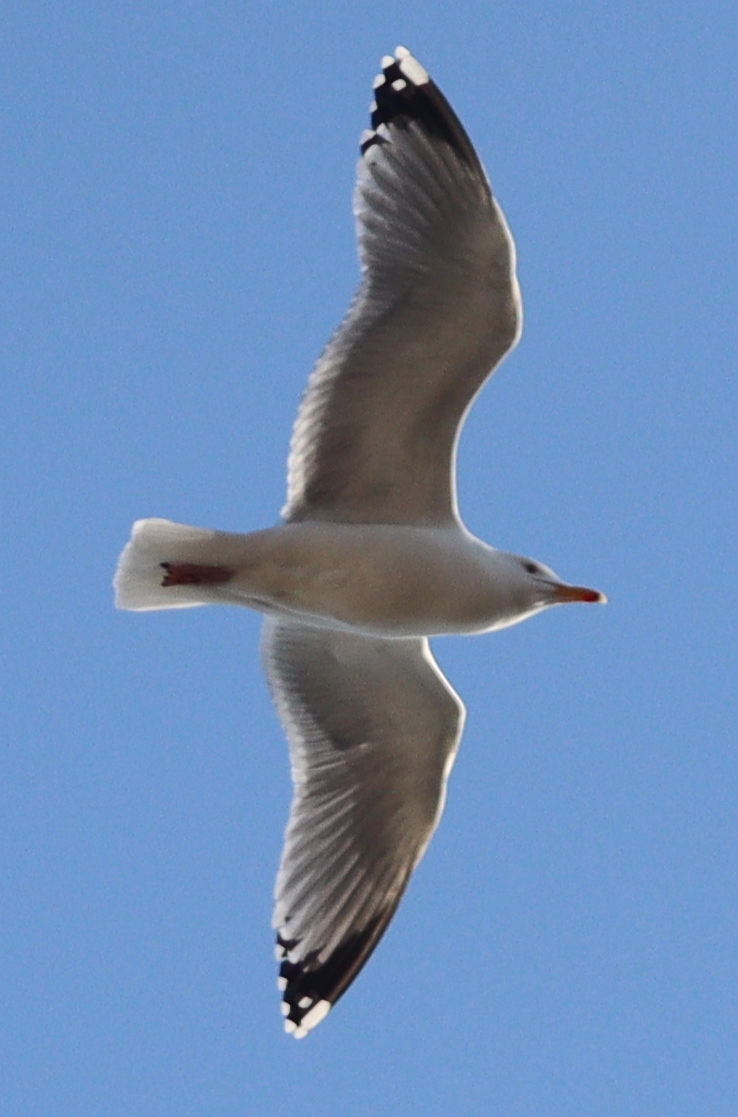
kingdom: Animalia
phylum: Chordata
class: Aves
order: Charadriiformes
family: Laridae
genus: Larus
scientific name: Larus argentatus
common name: Herring gull
